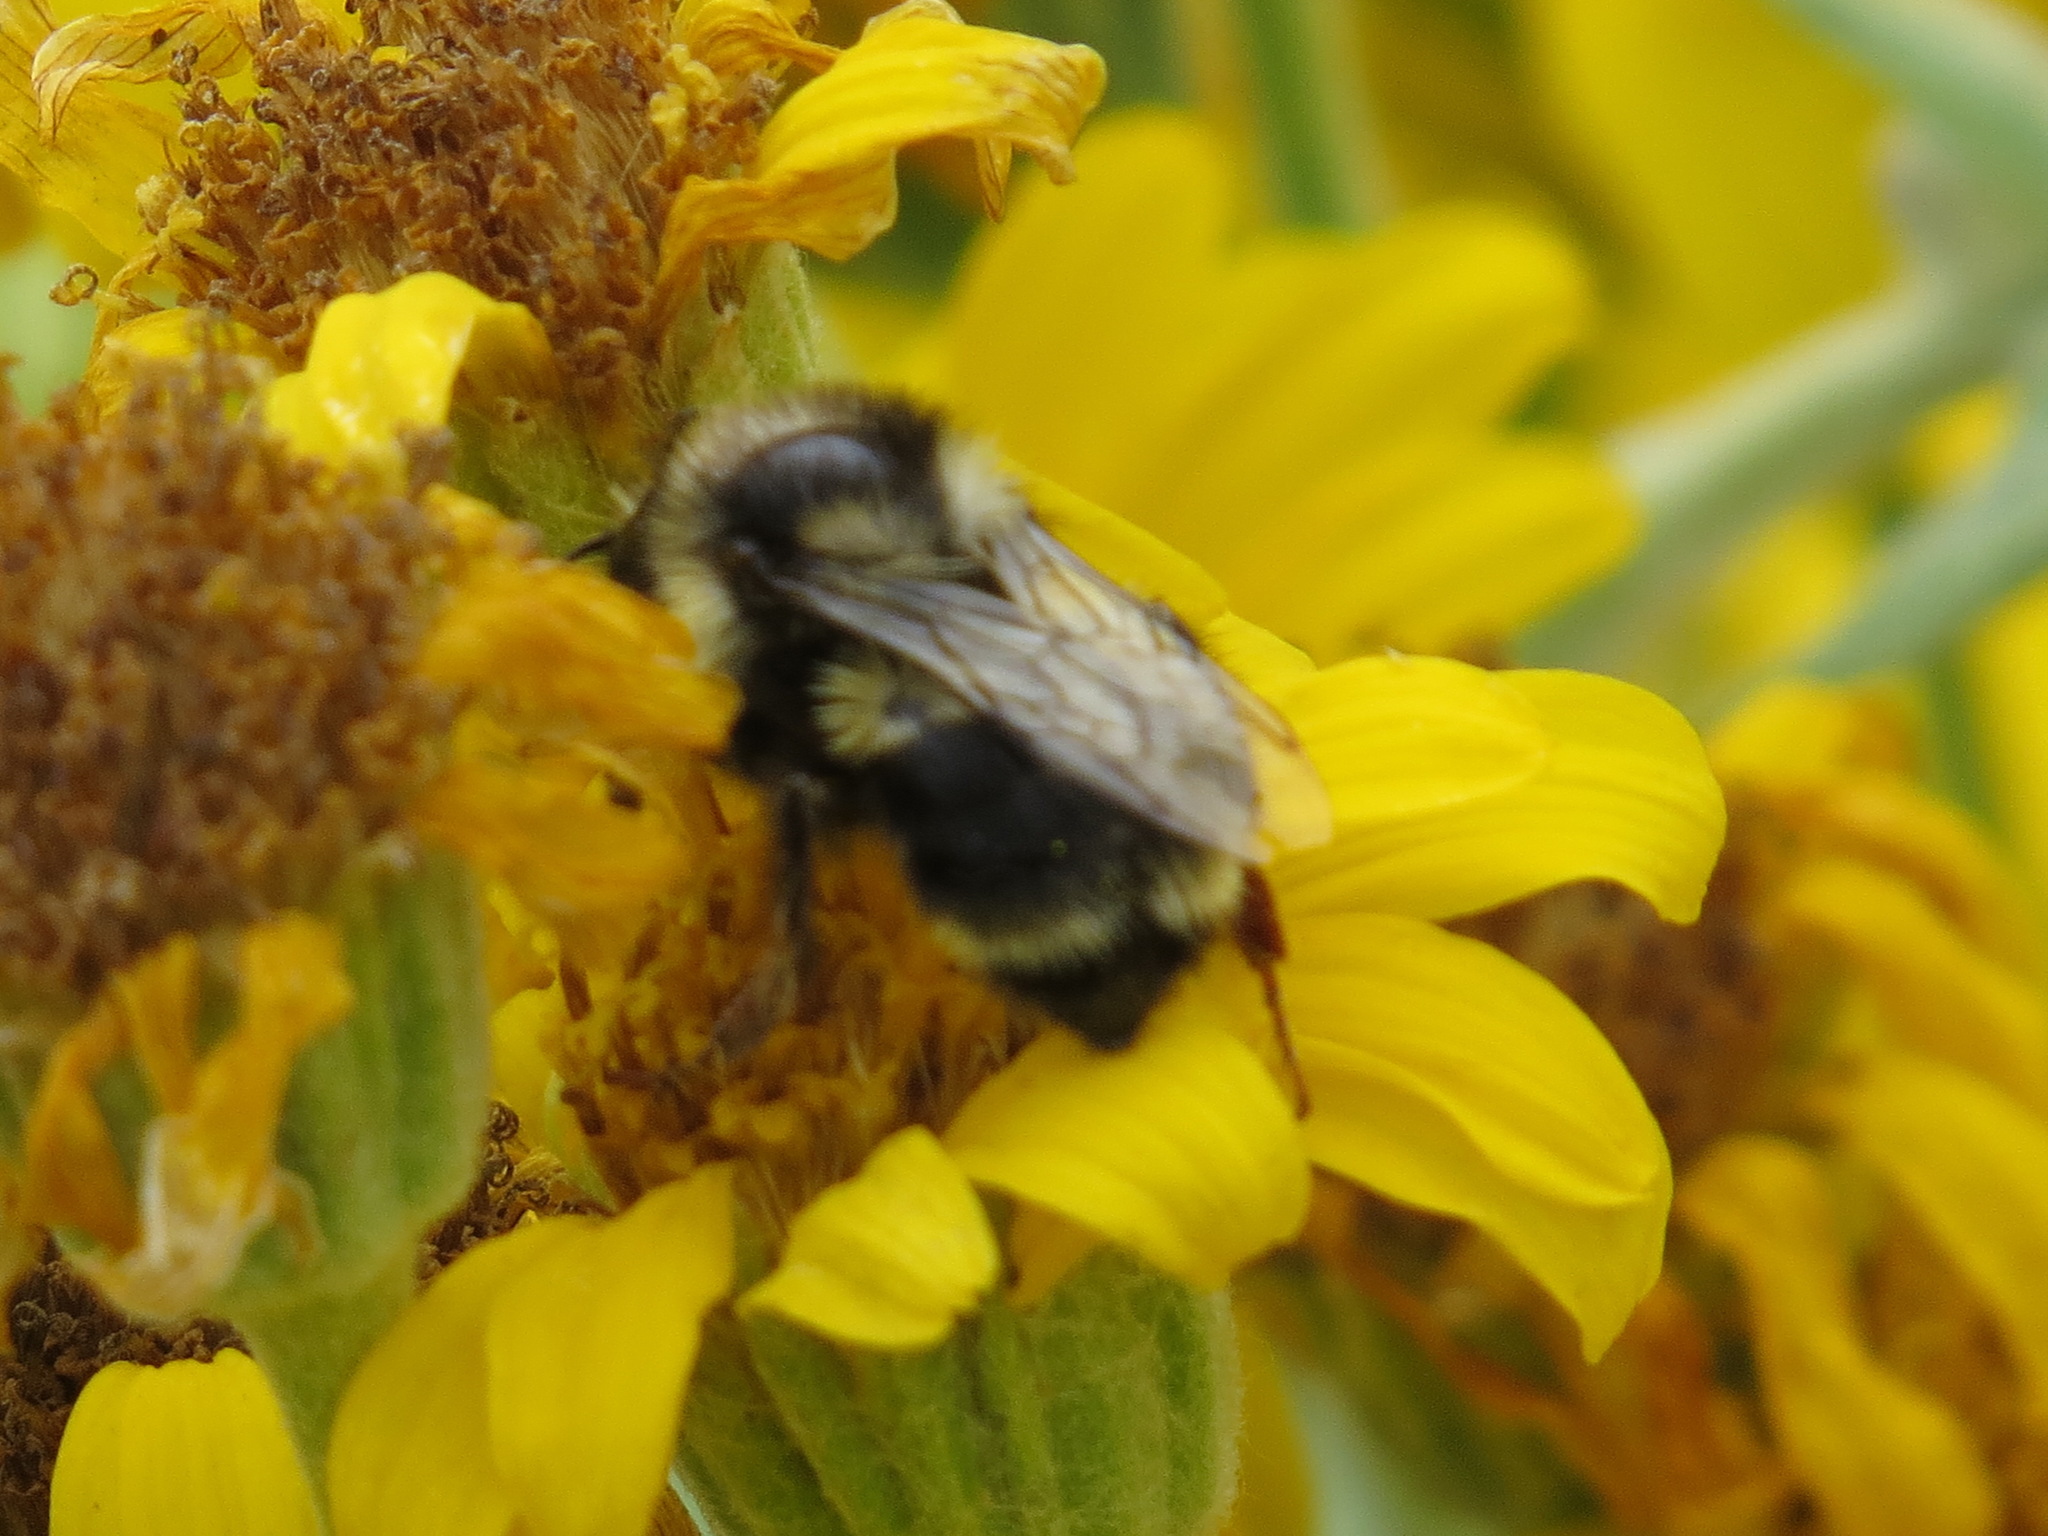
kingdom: Animalia
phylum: Arthropoda
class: Insecta
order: Hymenoptera
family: Apidae
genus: Bombus
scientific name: Bombus vancouverensis
